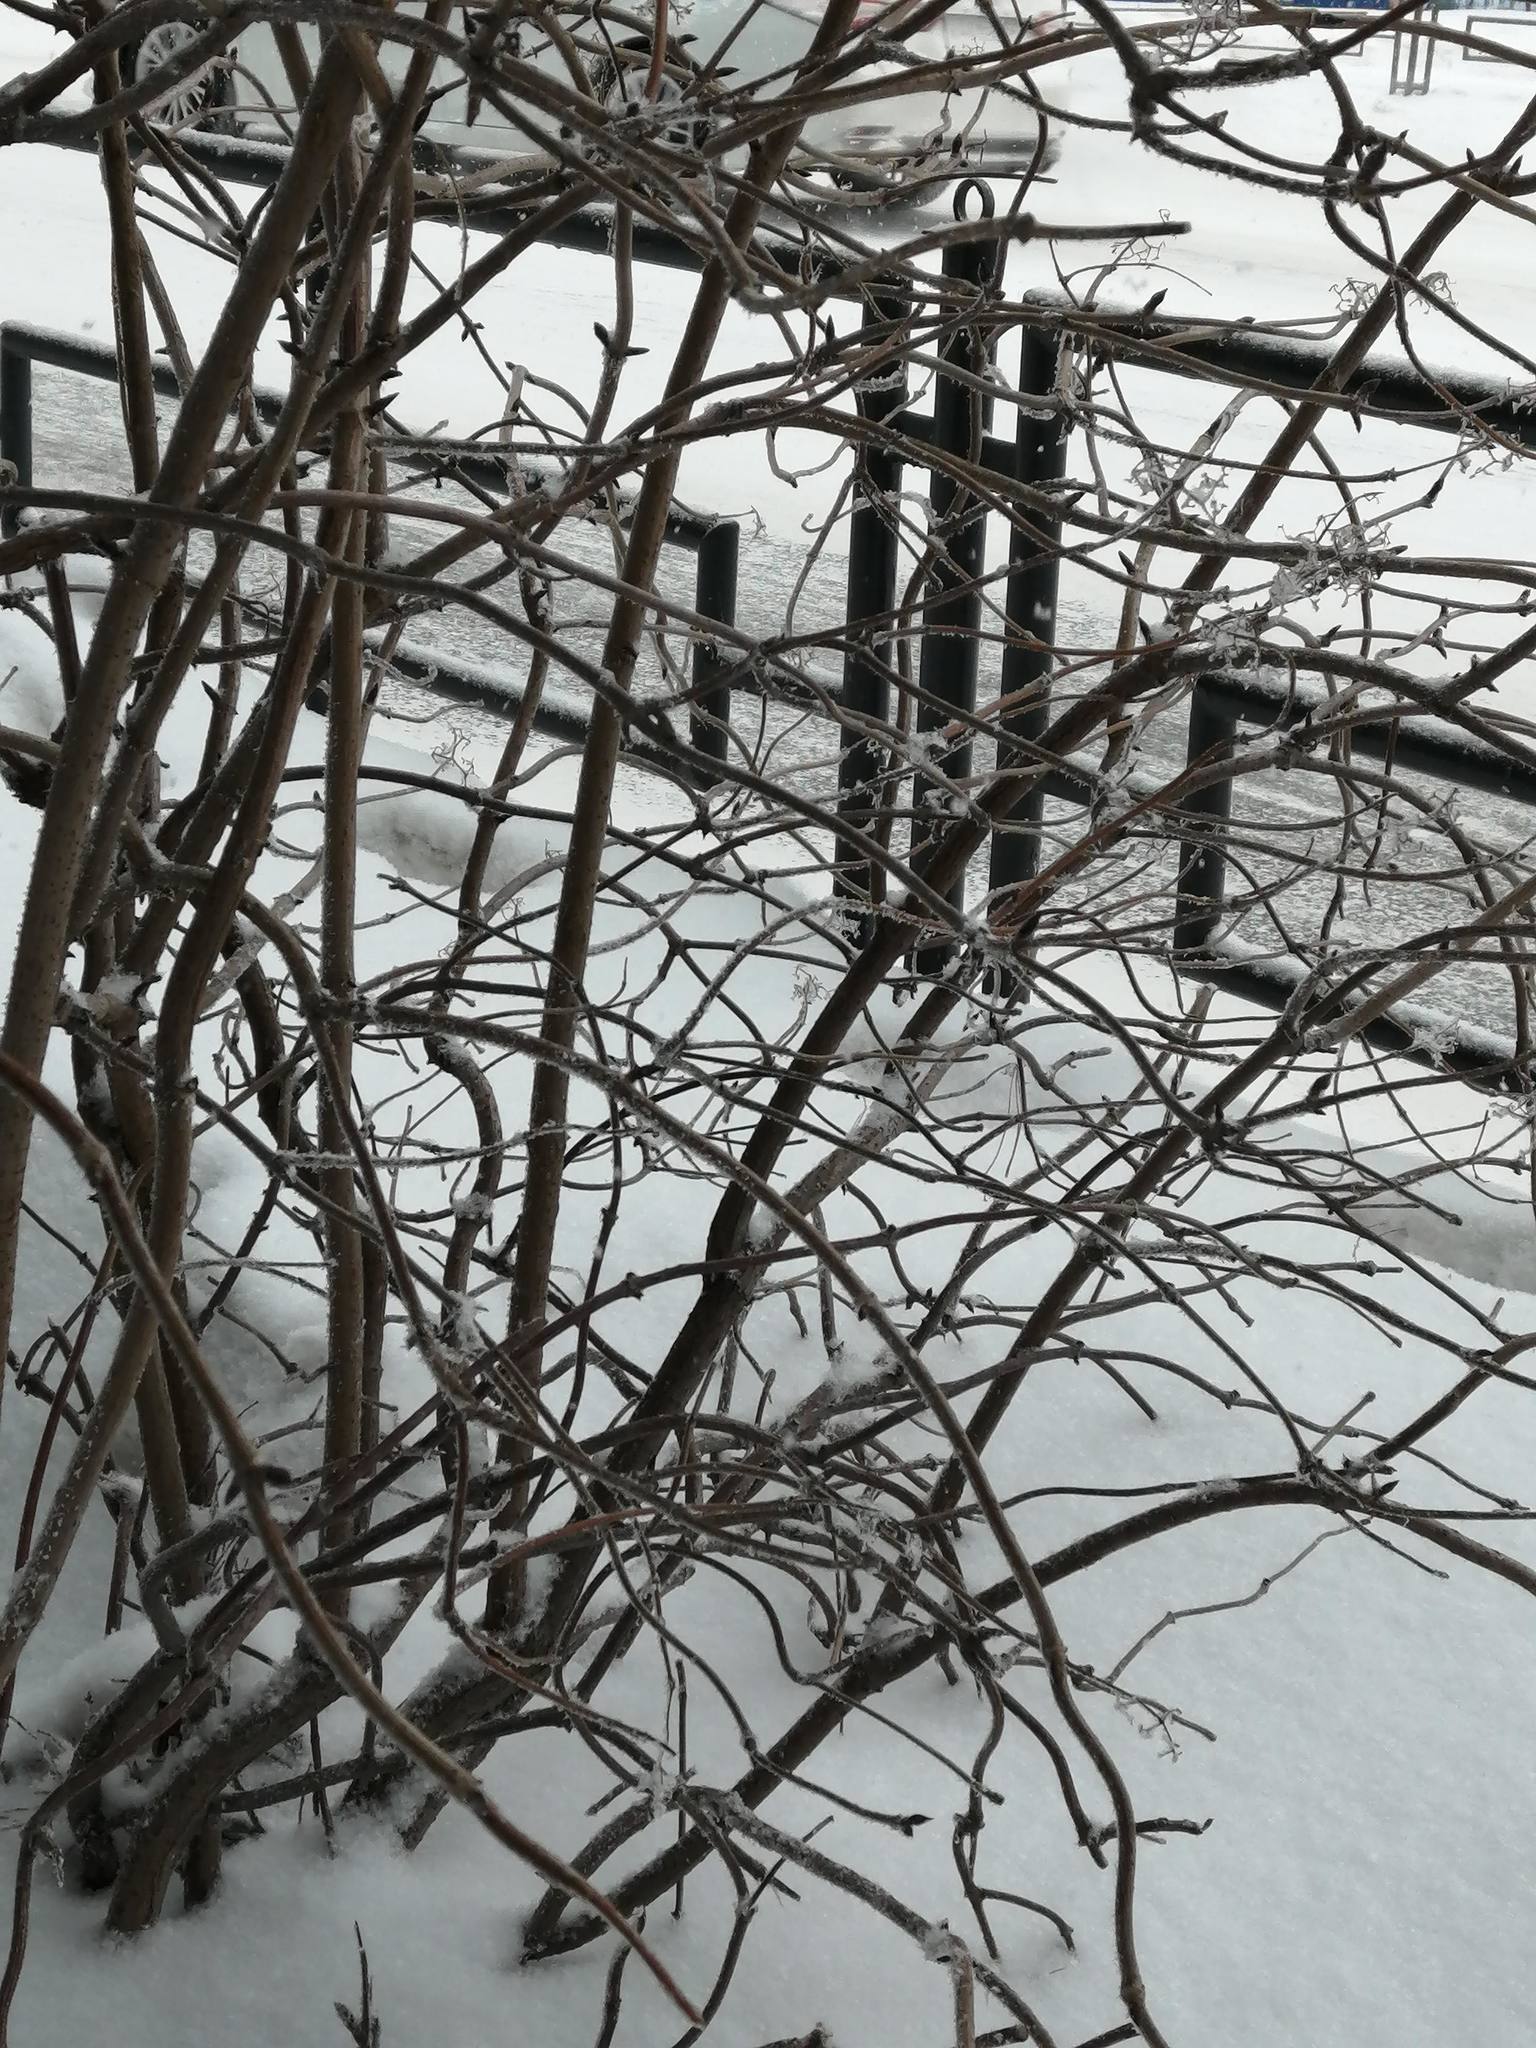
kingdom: Plantae
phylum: Tracheophyta
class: Magnoliopsida
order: Dipsacales
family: Viburnaceae
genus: Sambucus
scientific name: Sambucus sibirica
